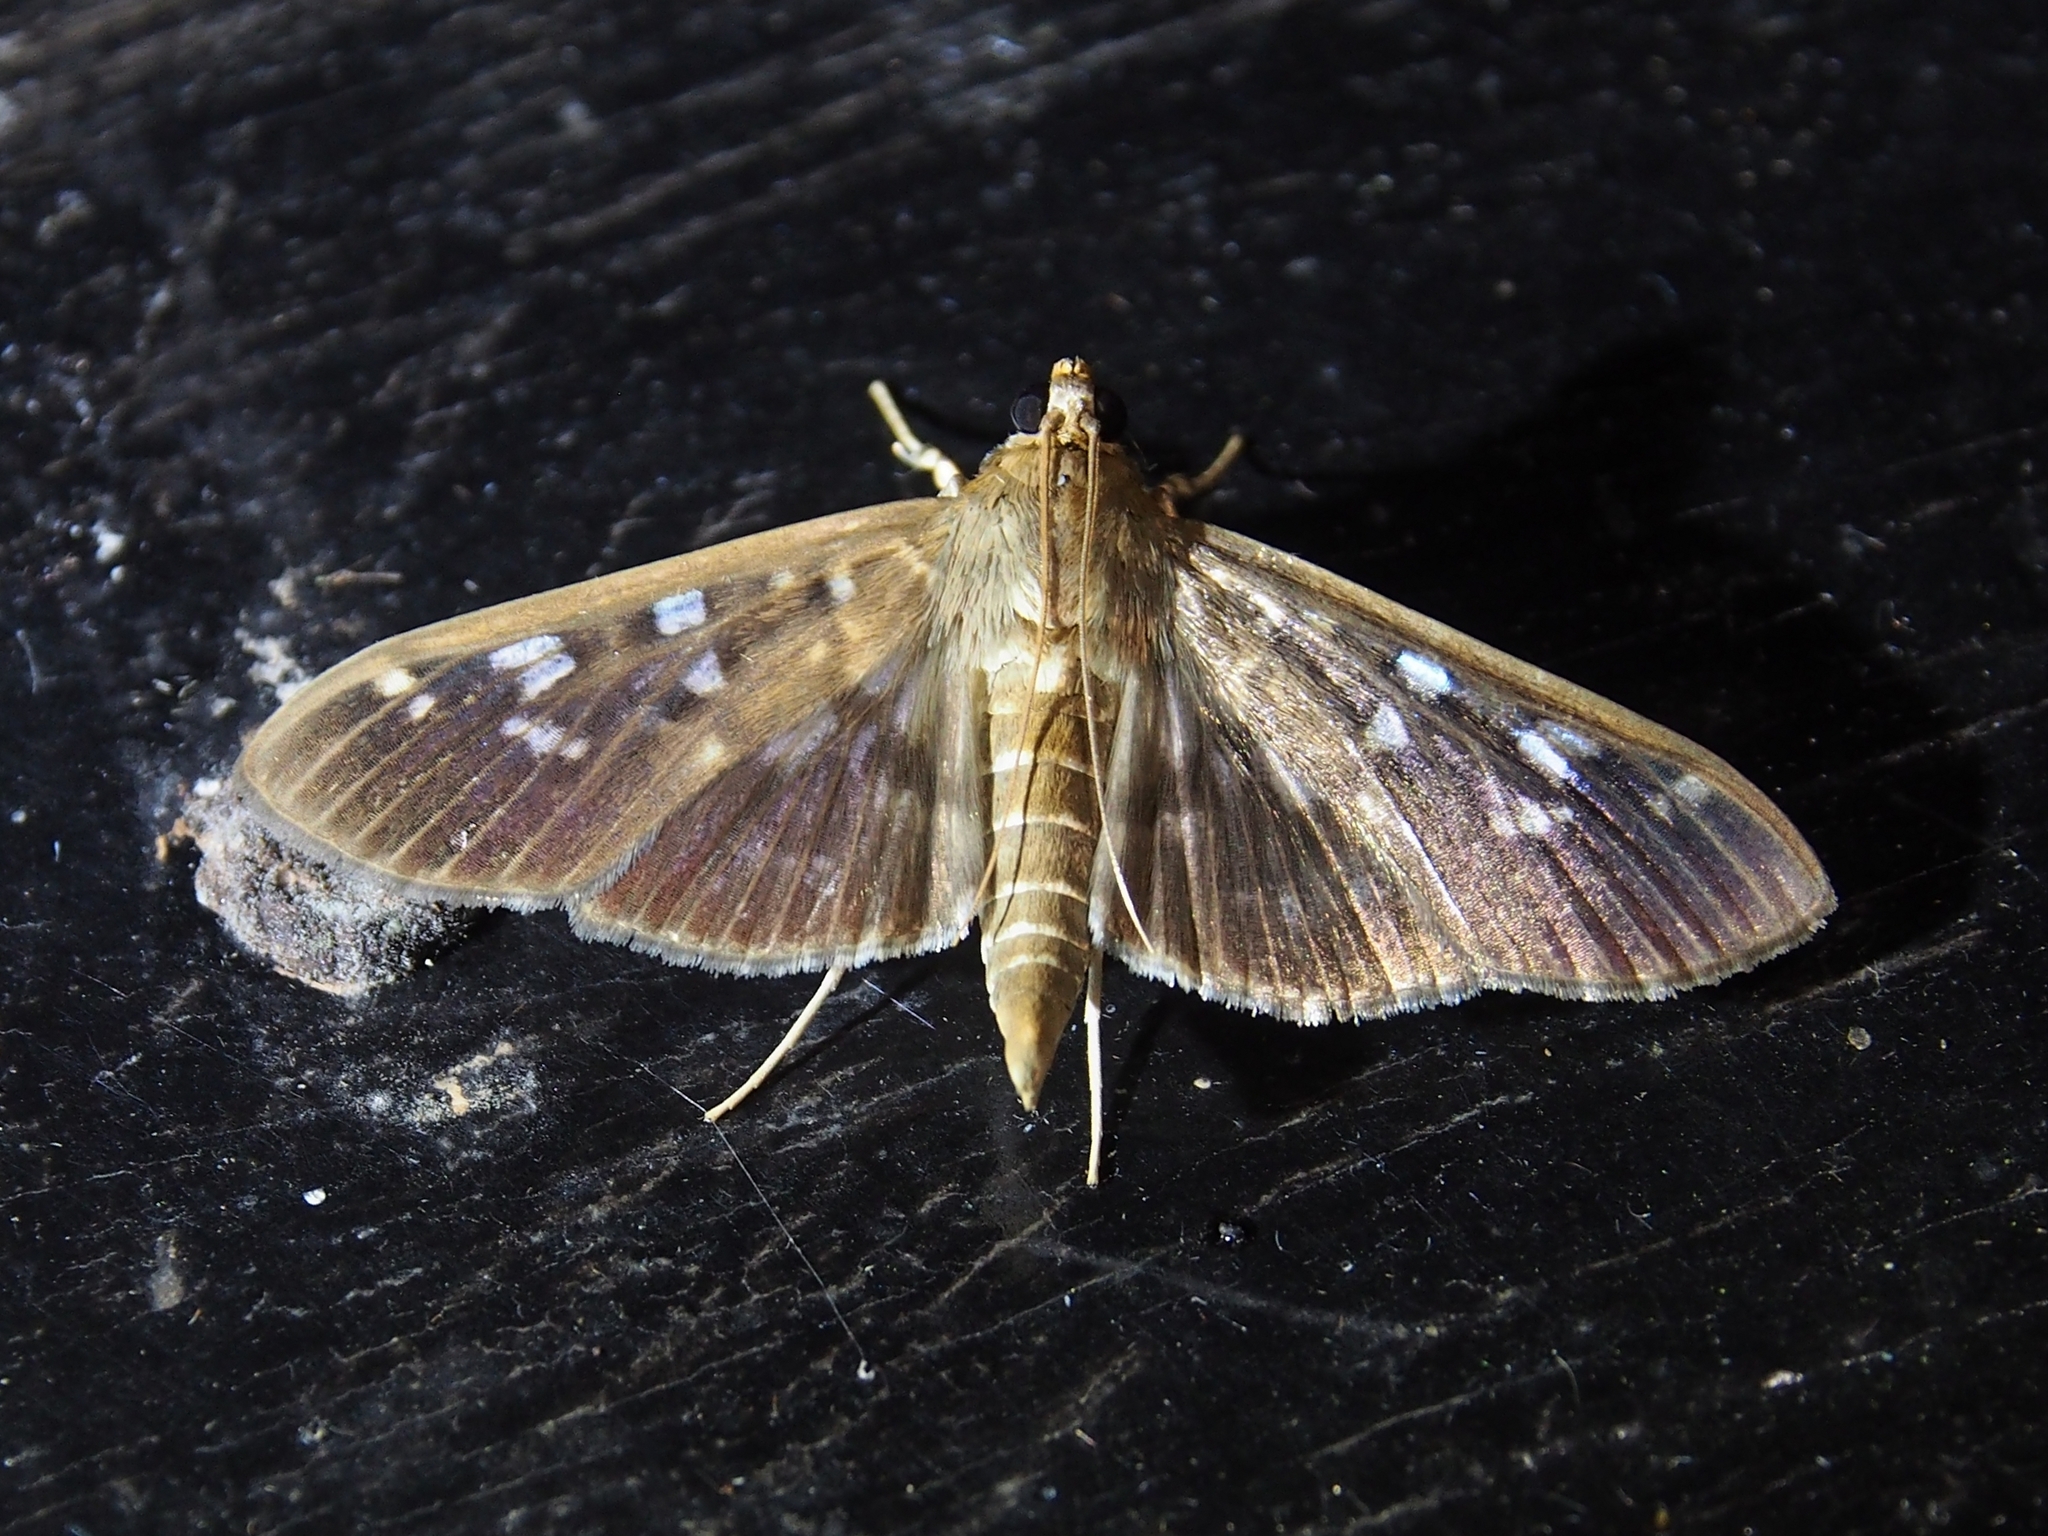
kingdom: Animalia
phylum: Arthropoda
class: Insecta
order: Lepidoptera
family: Crambidae
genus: Phostria
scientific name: Phostria cyrisalis
